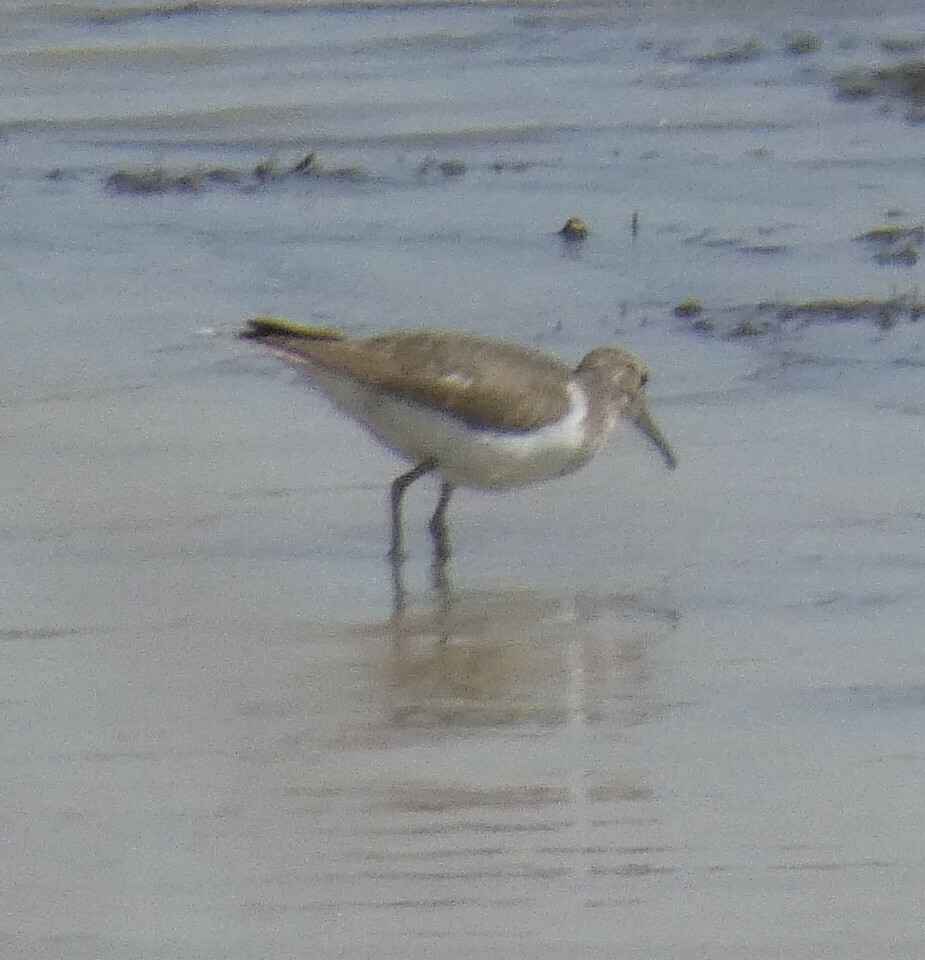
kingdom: Animalia
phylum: Chordata
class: Aves
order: Charadriiformes
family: Scolopacidae
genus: Actitis
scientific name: Actitis hypoleucos
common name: Common sandpiper
